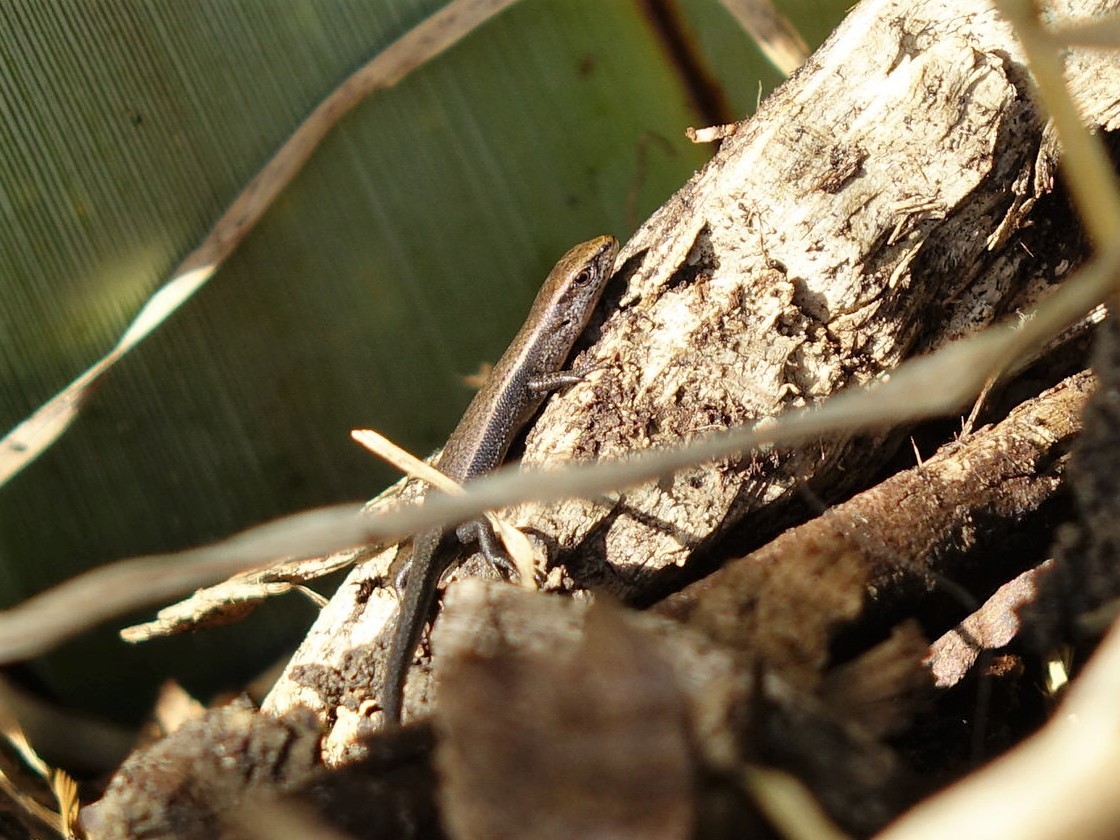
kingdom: Animalia
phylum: Chordata
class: Squamata
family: Scincidae
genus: Lampropholis
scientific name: Lampropholis delicata
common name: Plague skink
